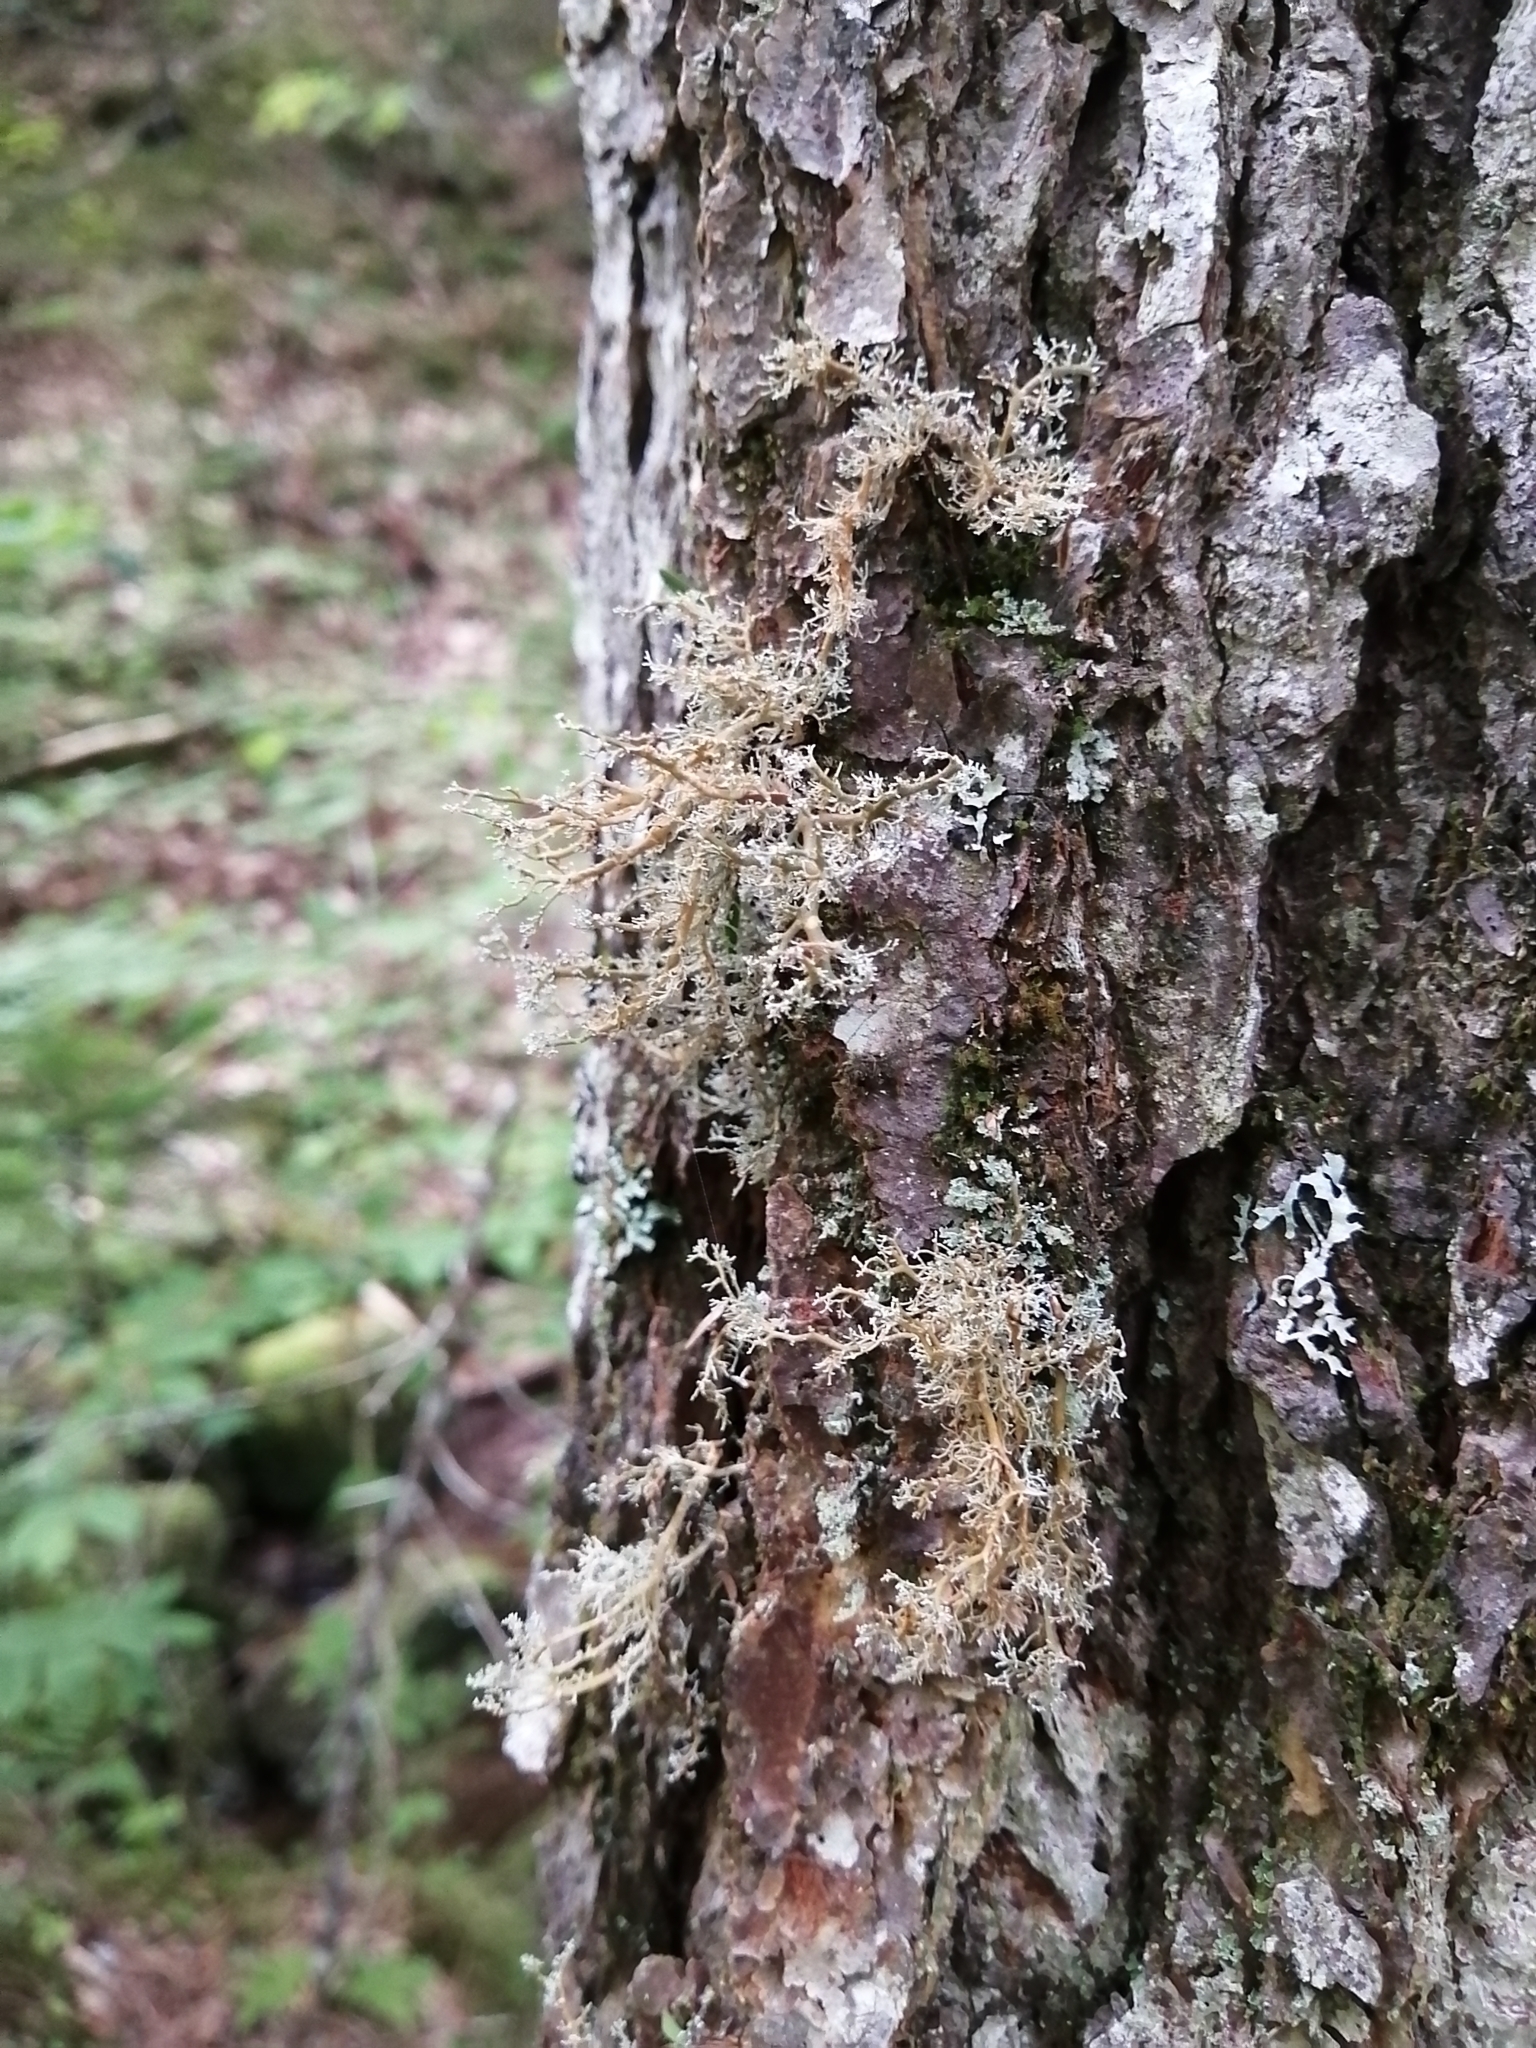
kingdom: Fungi
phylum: Ascomycota
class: Lecanoromycetes
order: Lecanorales
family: Sphaerophoraceae
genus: Sphaerophorus
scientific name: Sphaerophorus globosus
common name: Globe ball lichen
